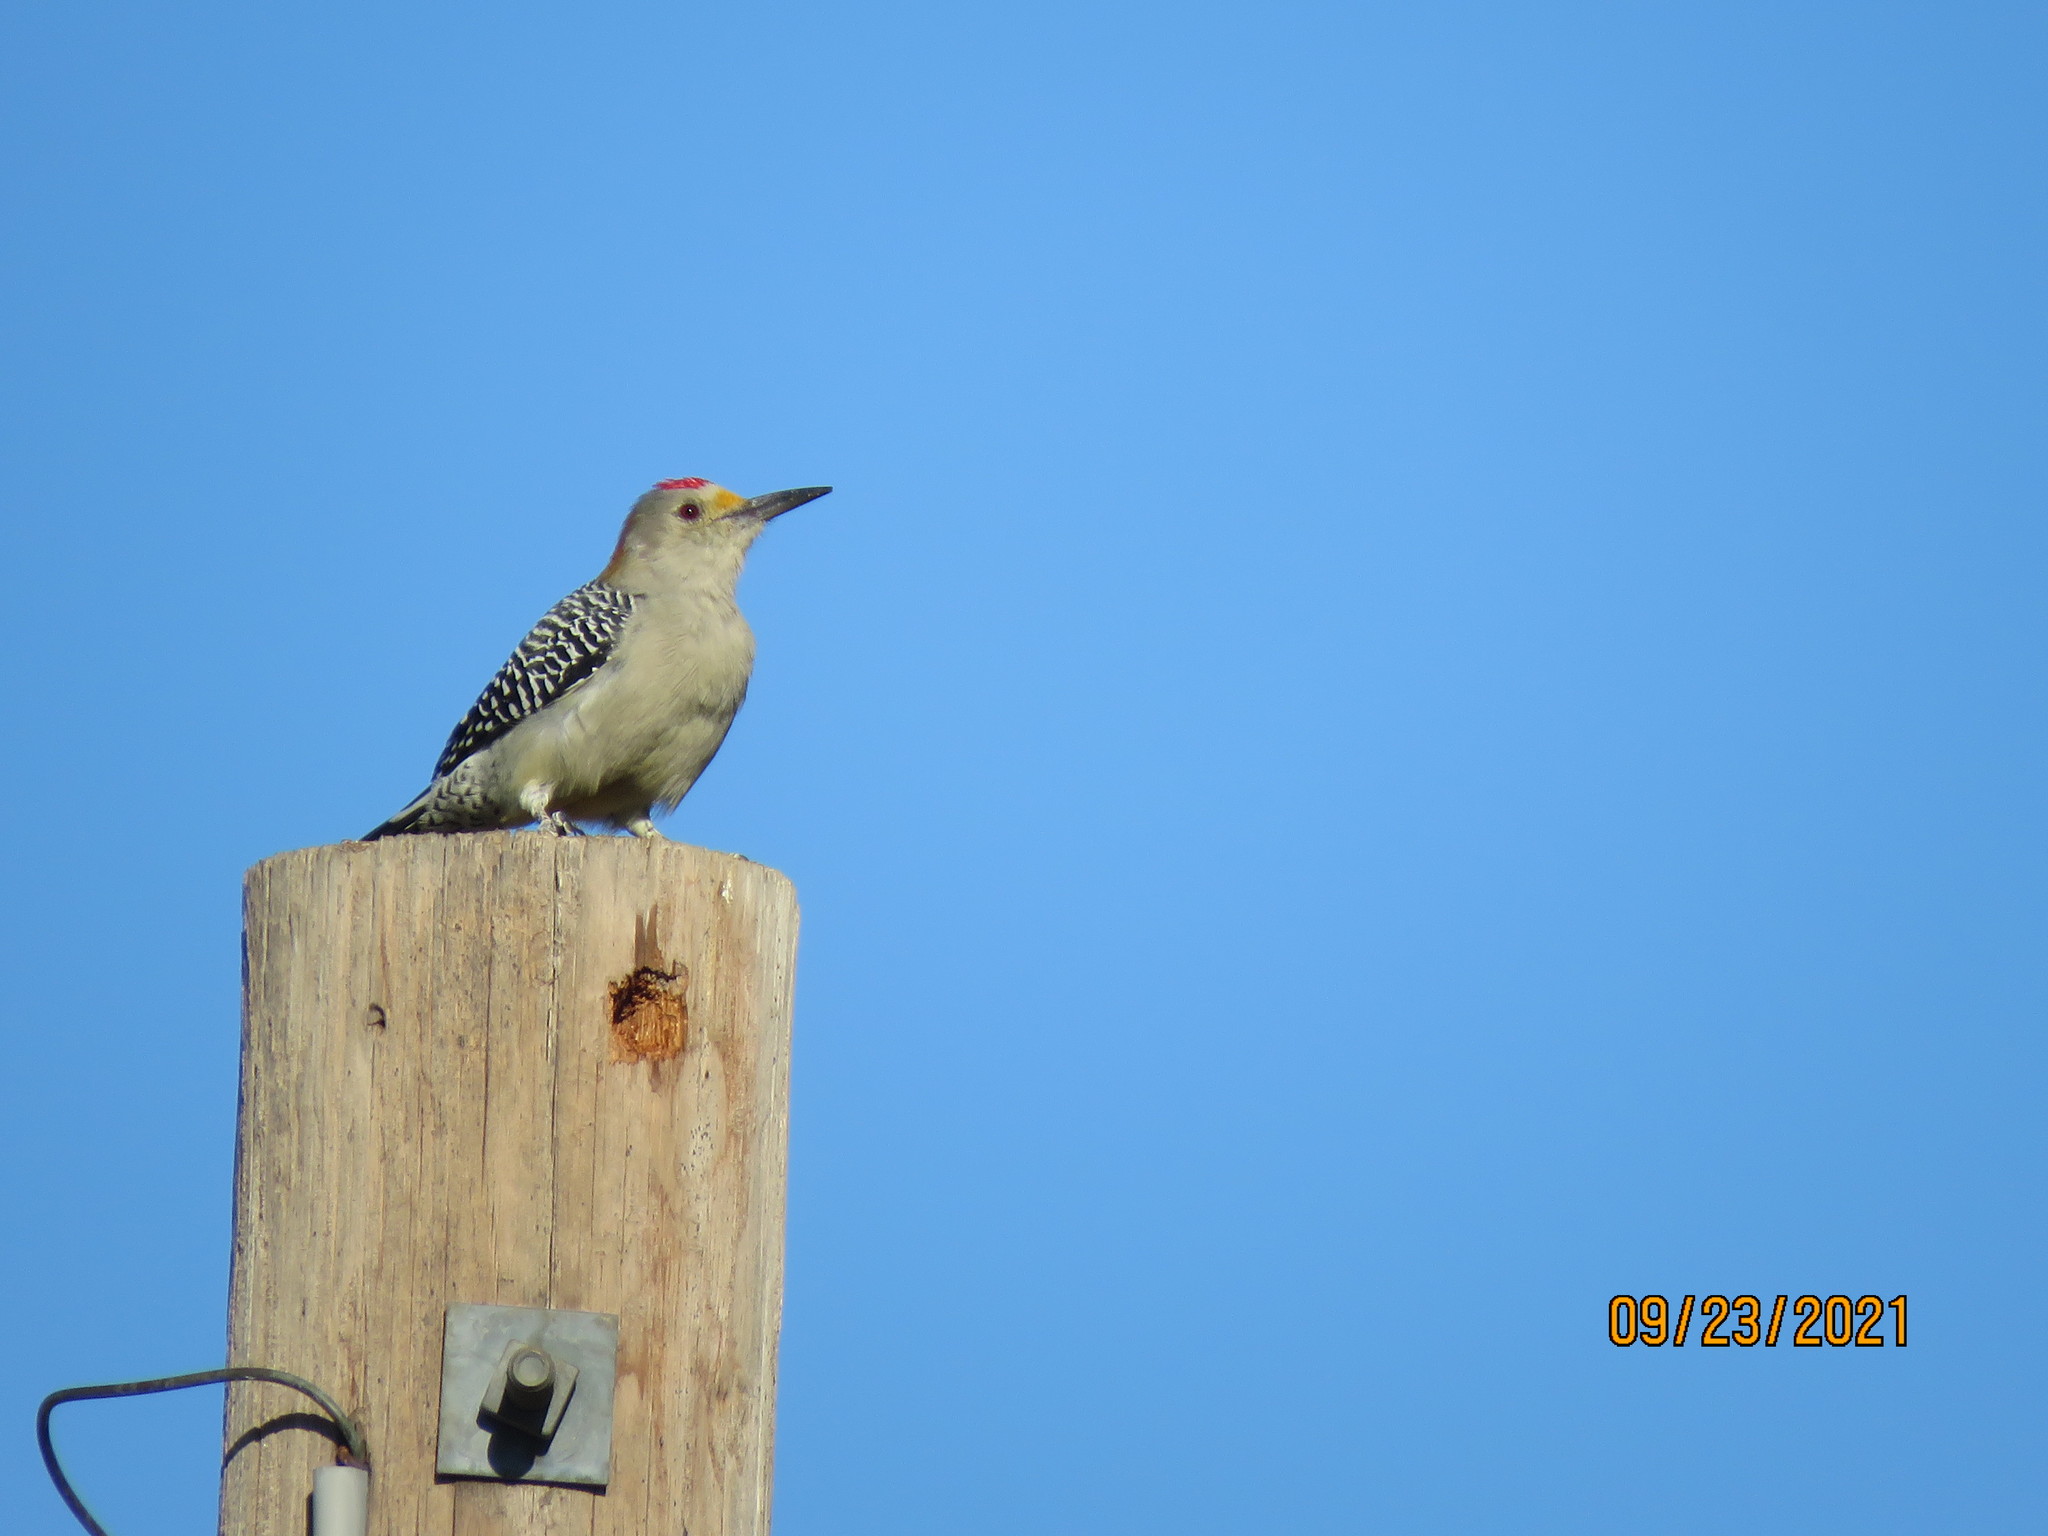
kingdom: Animalia
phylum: Chordata
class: Aves
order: Piciformes
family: Picidae
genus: Melanerpes
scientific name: Melanerpes aurifrons
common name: Golden-fronted woodpecker
